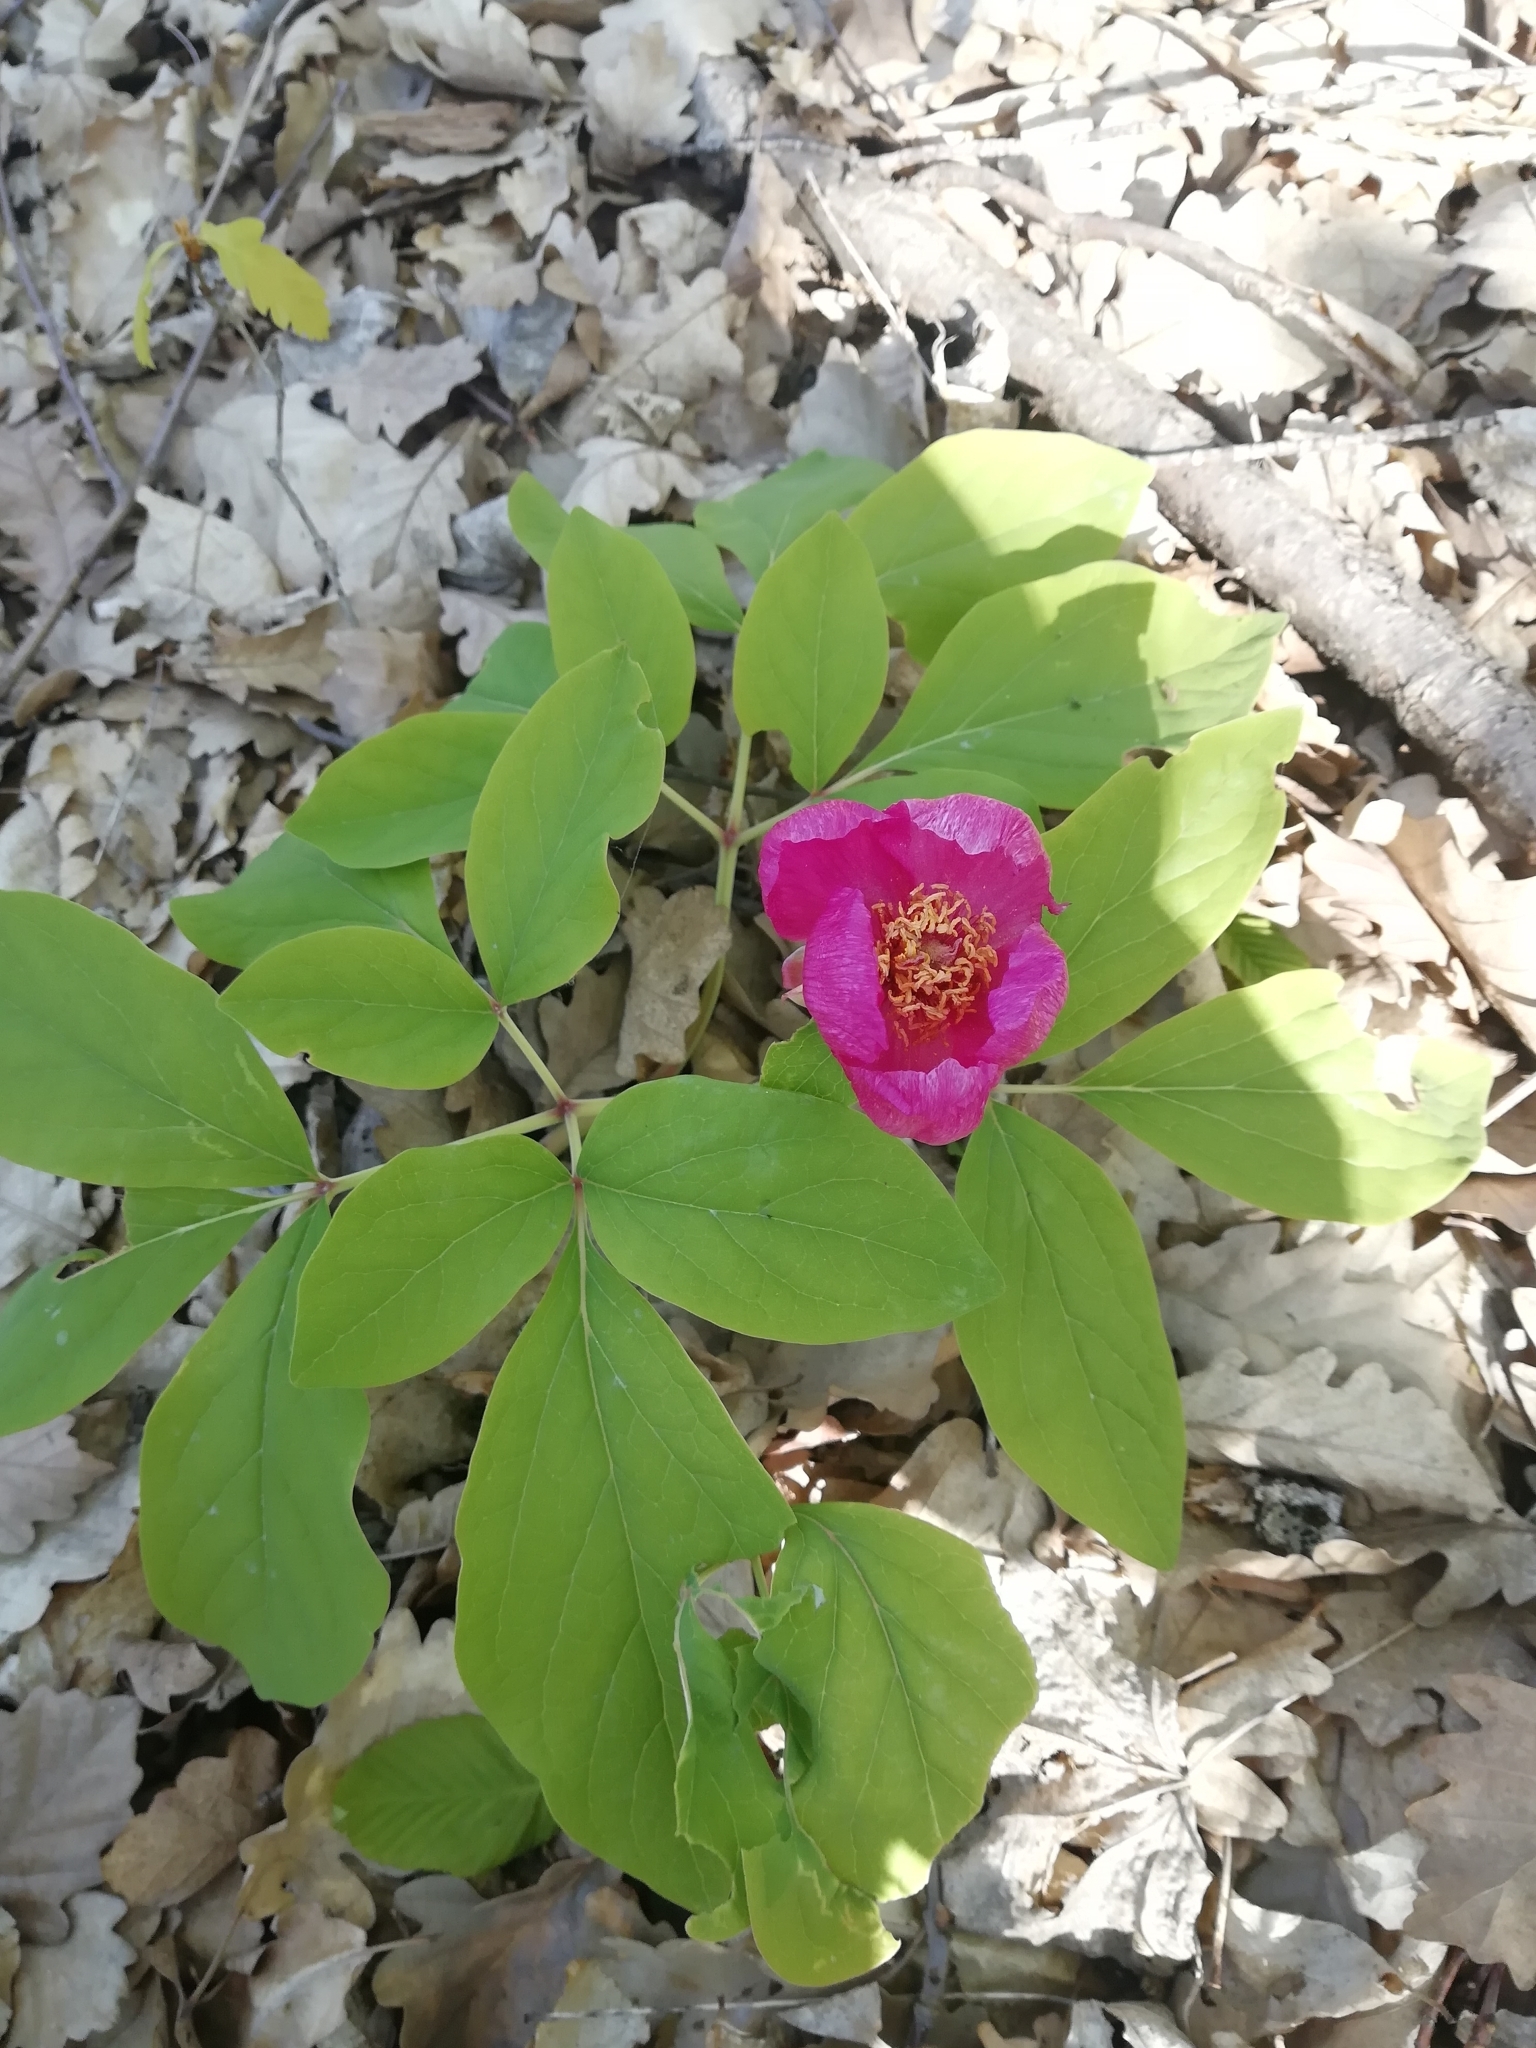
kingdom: Plantae
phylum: Tracheophyta
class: Magnoliopsida
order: Saxifragales
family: Paeoniaceae
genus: Paeonia
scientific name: Paeonia caucasica
